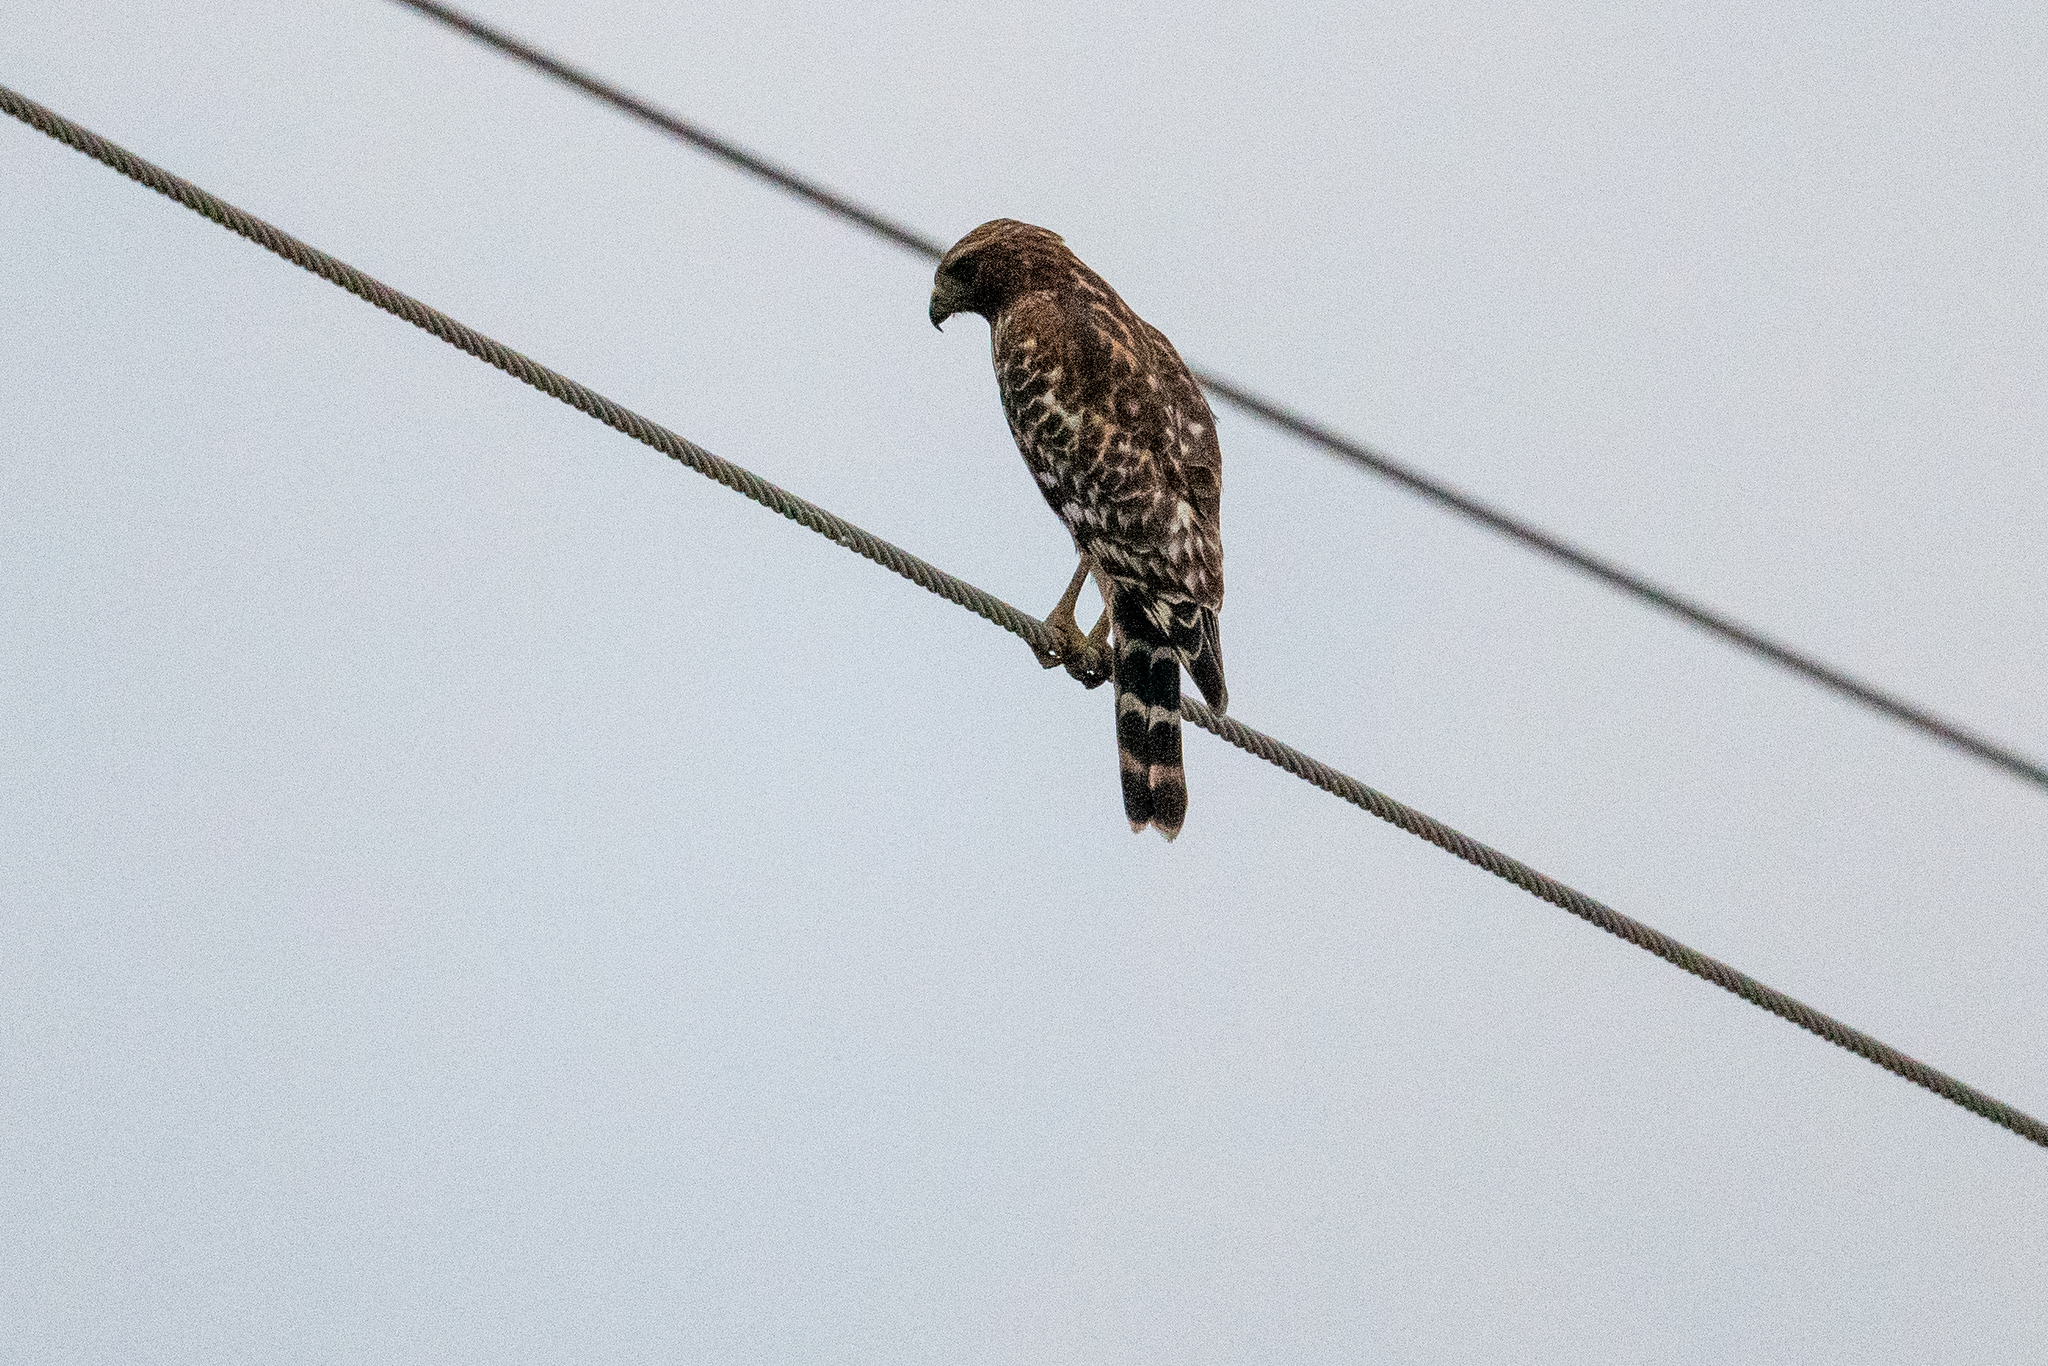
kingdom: Animalia
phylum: Chordata
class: Aves
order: Accipitriformes
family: Accipitridae
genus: Buteo
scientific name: Buteo lineatus
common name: Red-shouldered hawk
